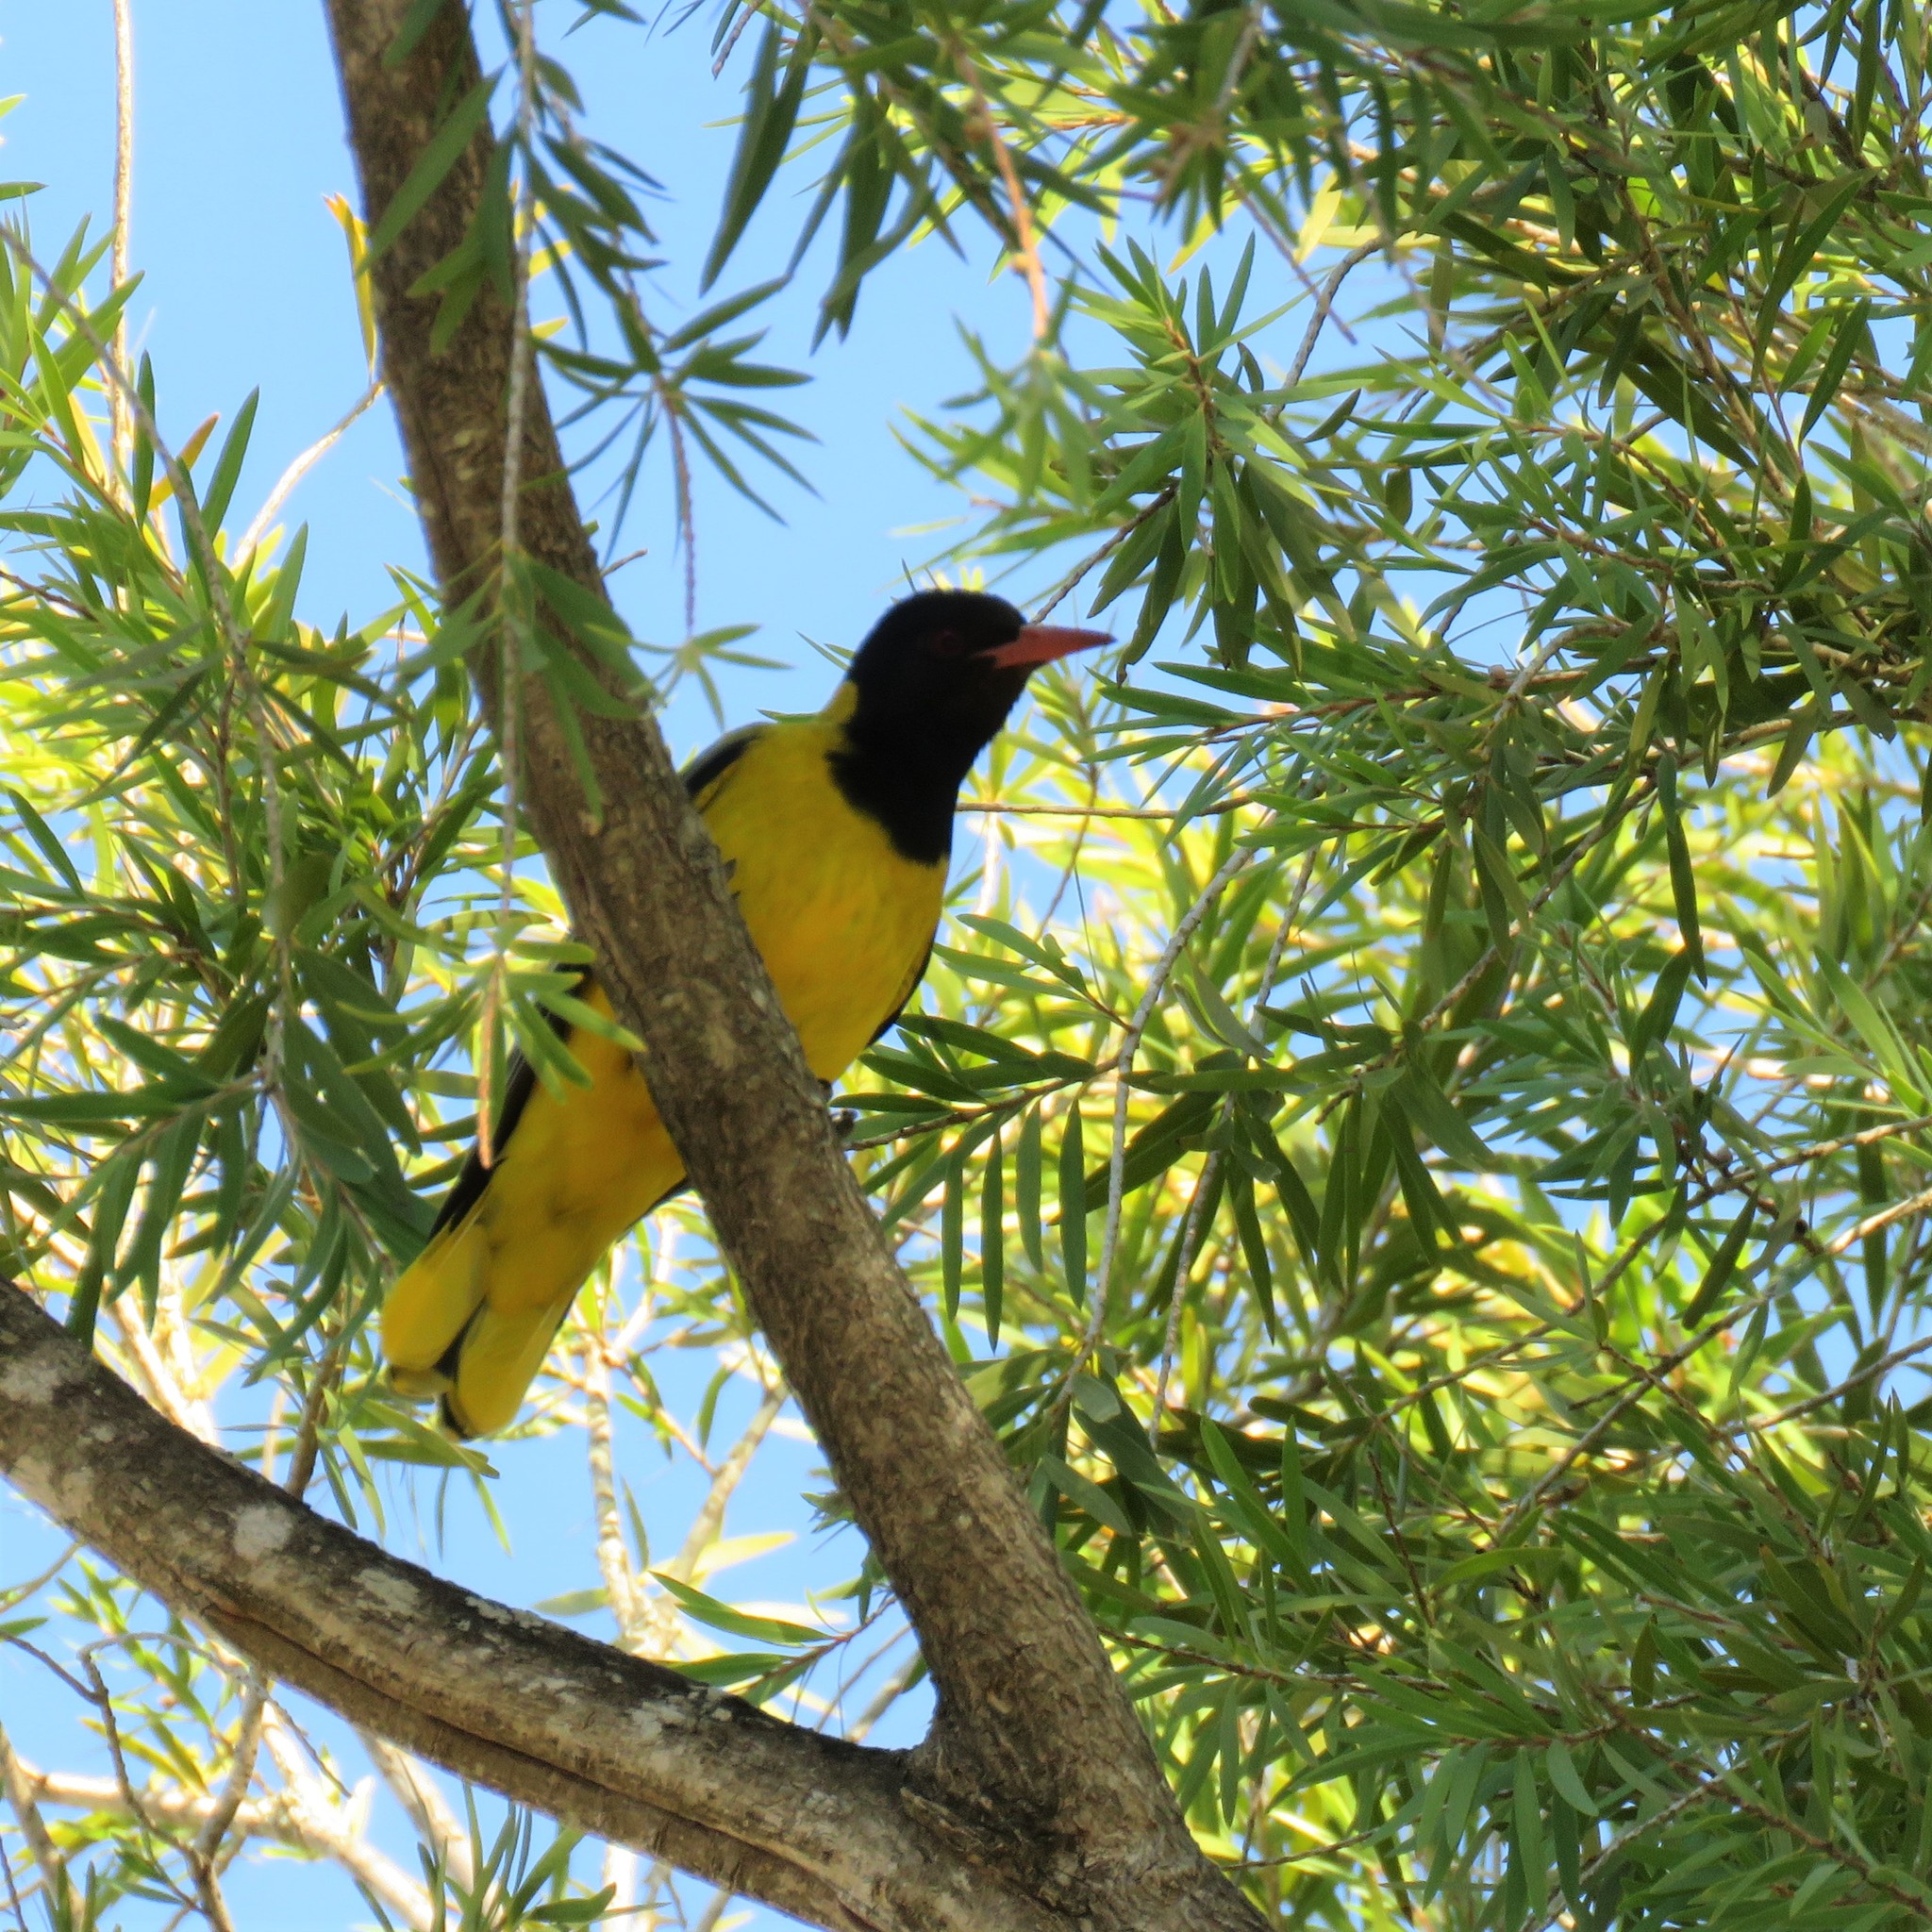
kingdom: Animalia
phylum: Chordata
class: Aves
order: Passeriformes
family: Oriolidae
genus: Oriolus
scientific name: Oriolus larvatus
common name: Black-headed oriole
